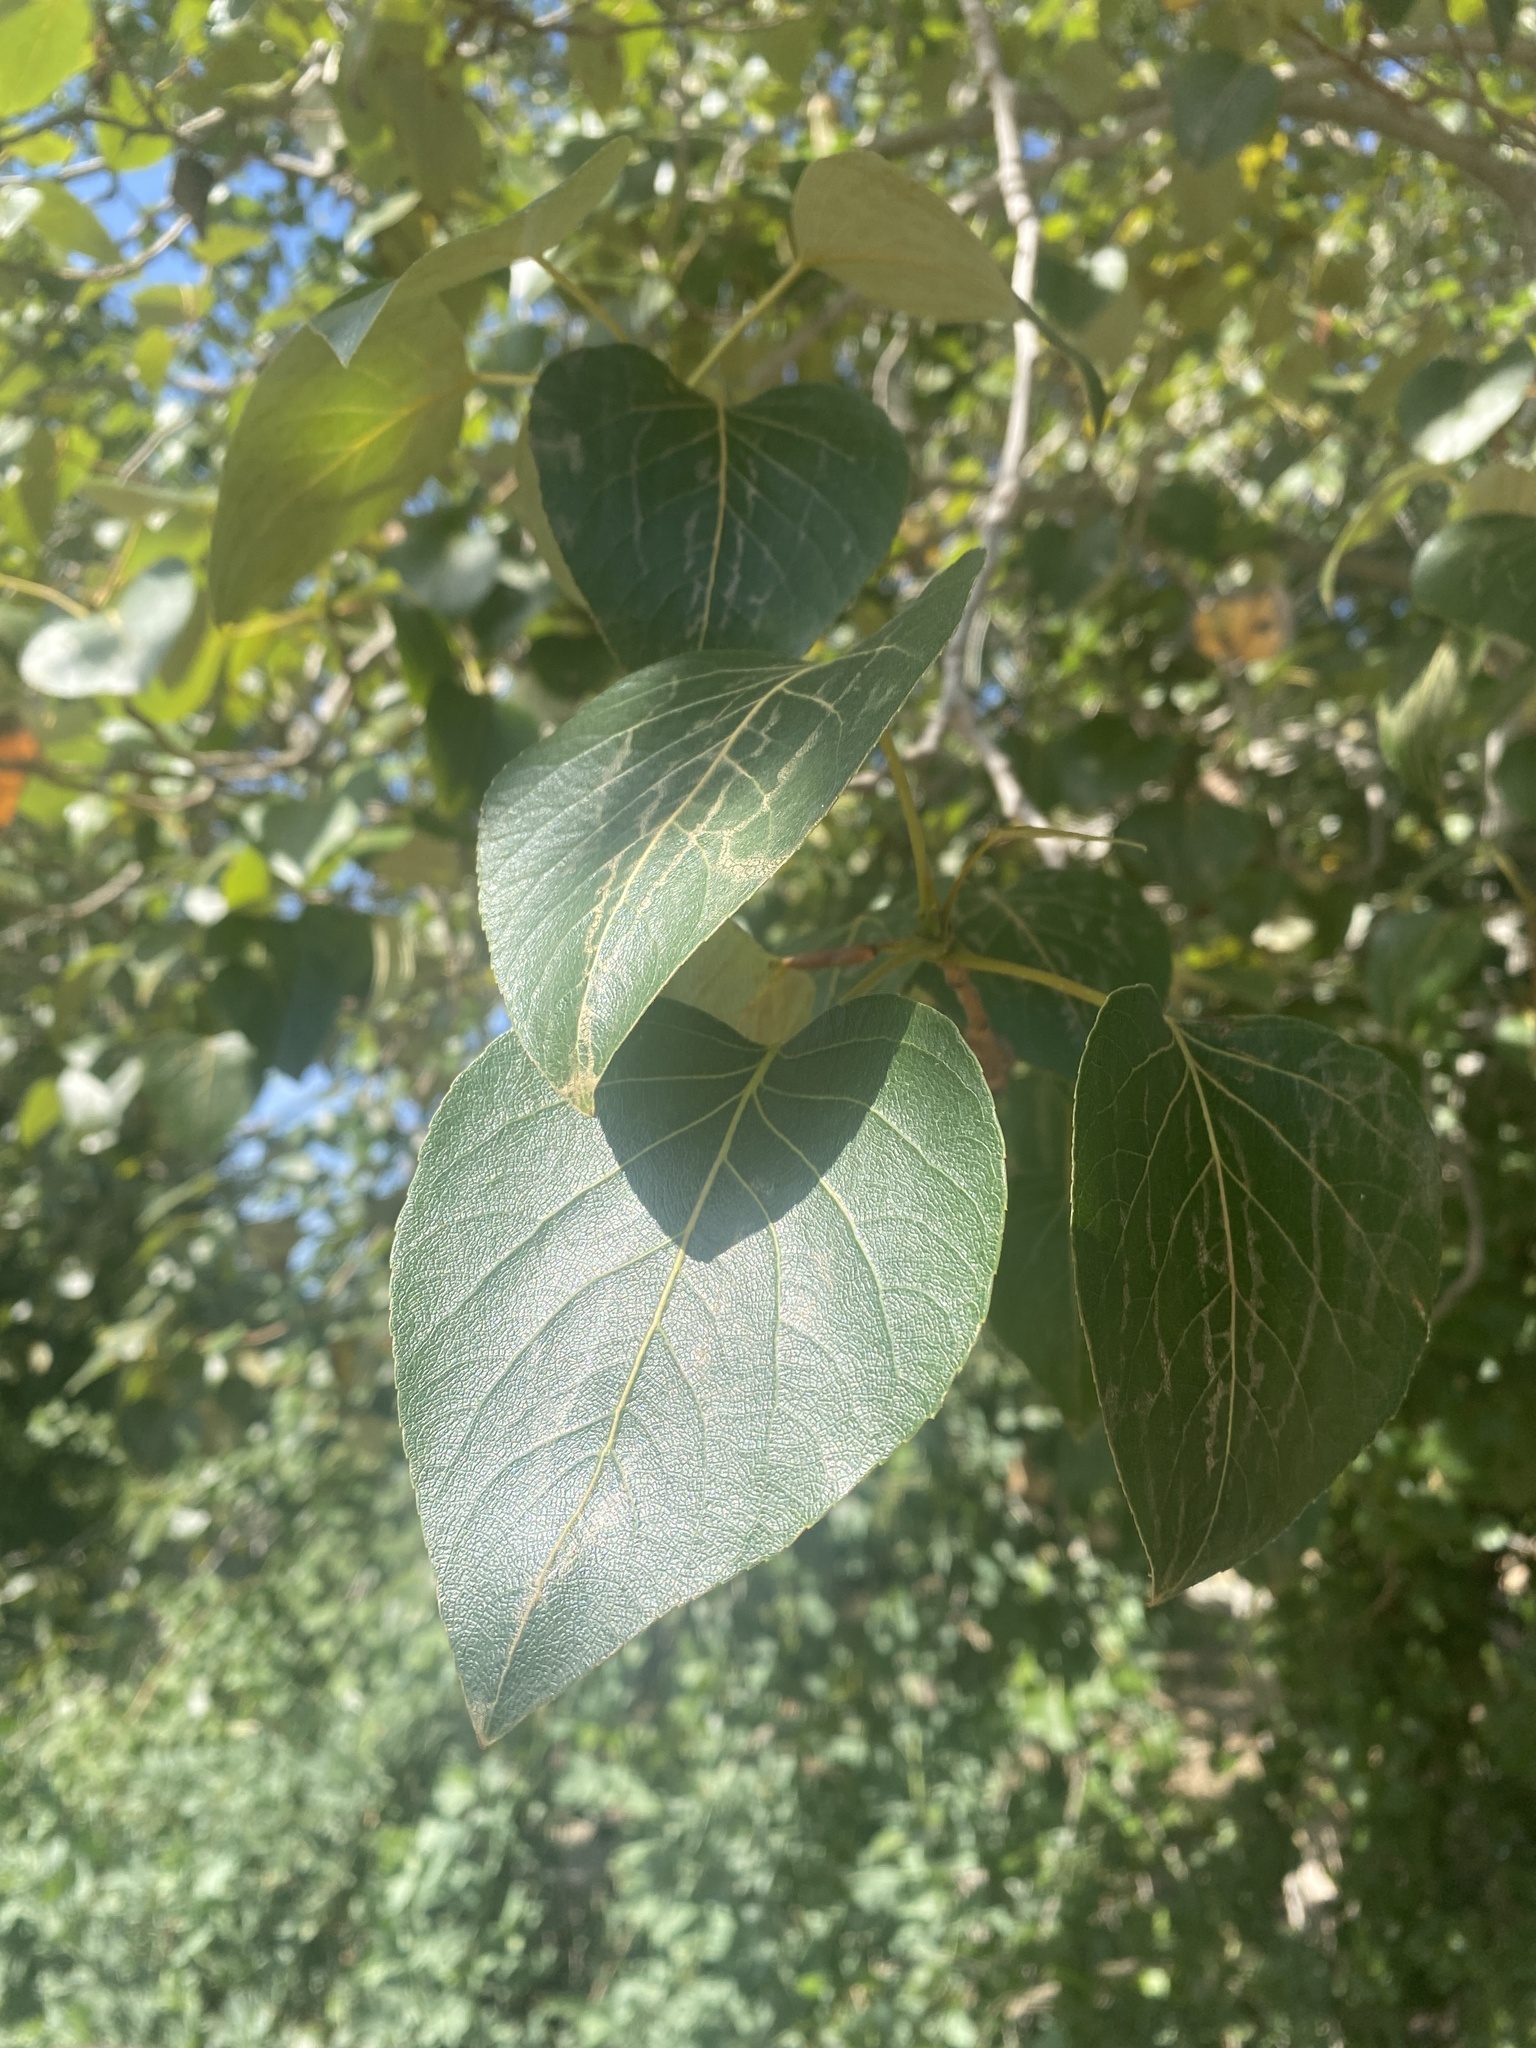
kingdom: Plantae
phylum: Tracheophyta
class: Magnoliopsida
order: Malpighiales
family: Salicaceae
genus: Populus
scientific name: Populus trichocarpa
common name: Black cottonwood
